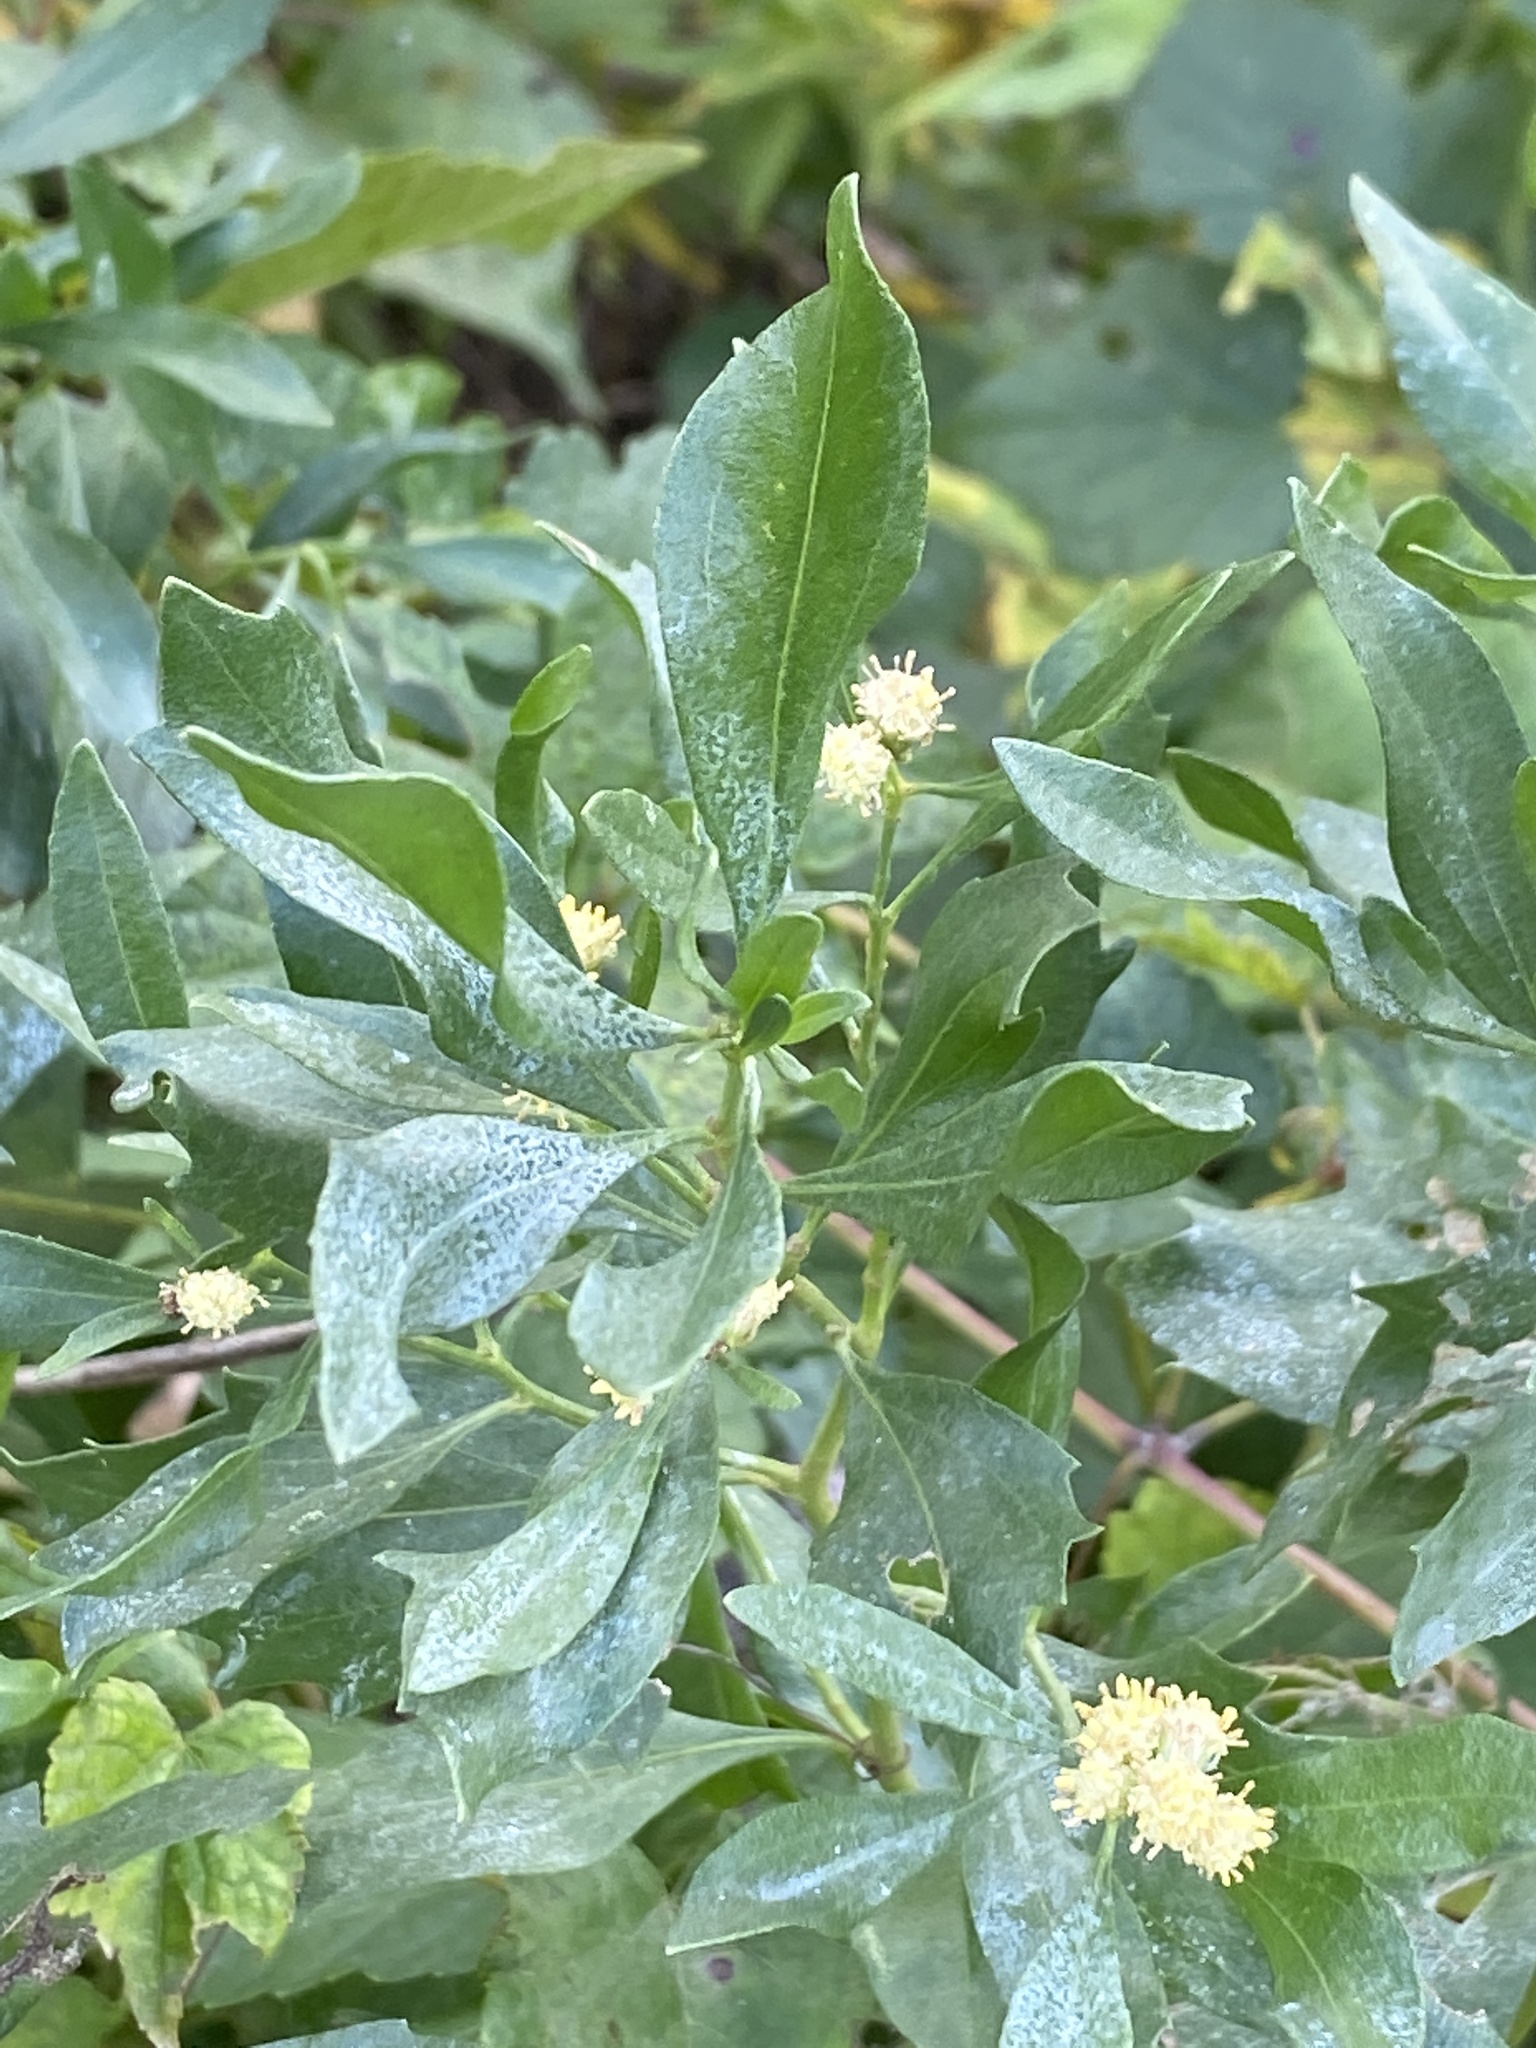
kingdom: Plantae
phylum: Tracheophyta
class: Magnoliopsida
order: Asterales
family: Asteraceae
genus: Baccharis
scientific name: Baccharis halimifolia
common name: Eastern baccharis
